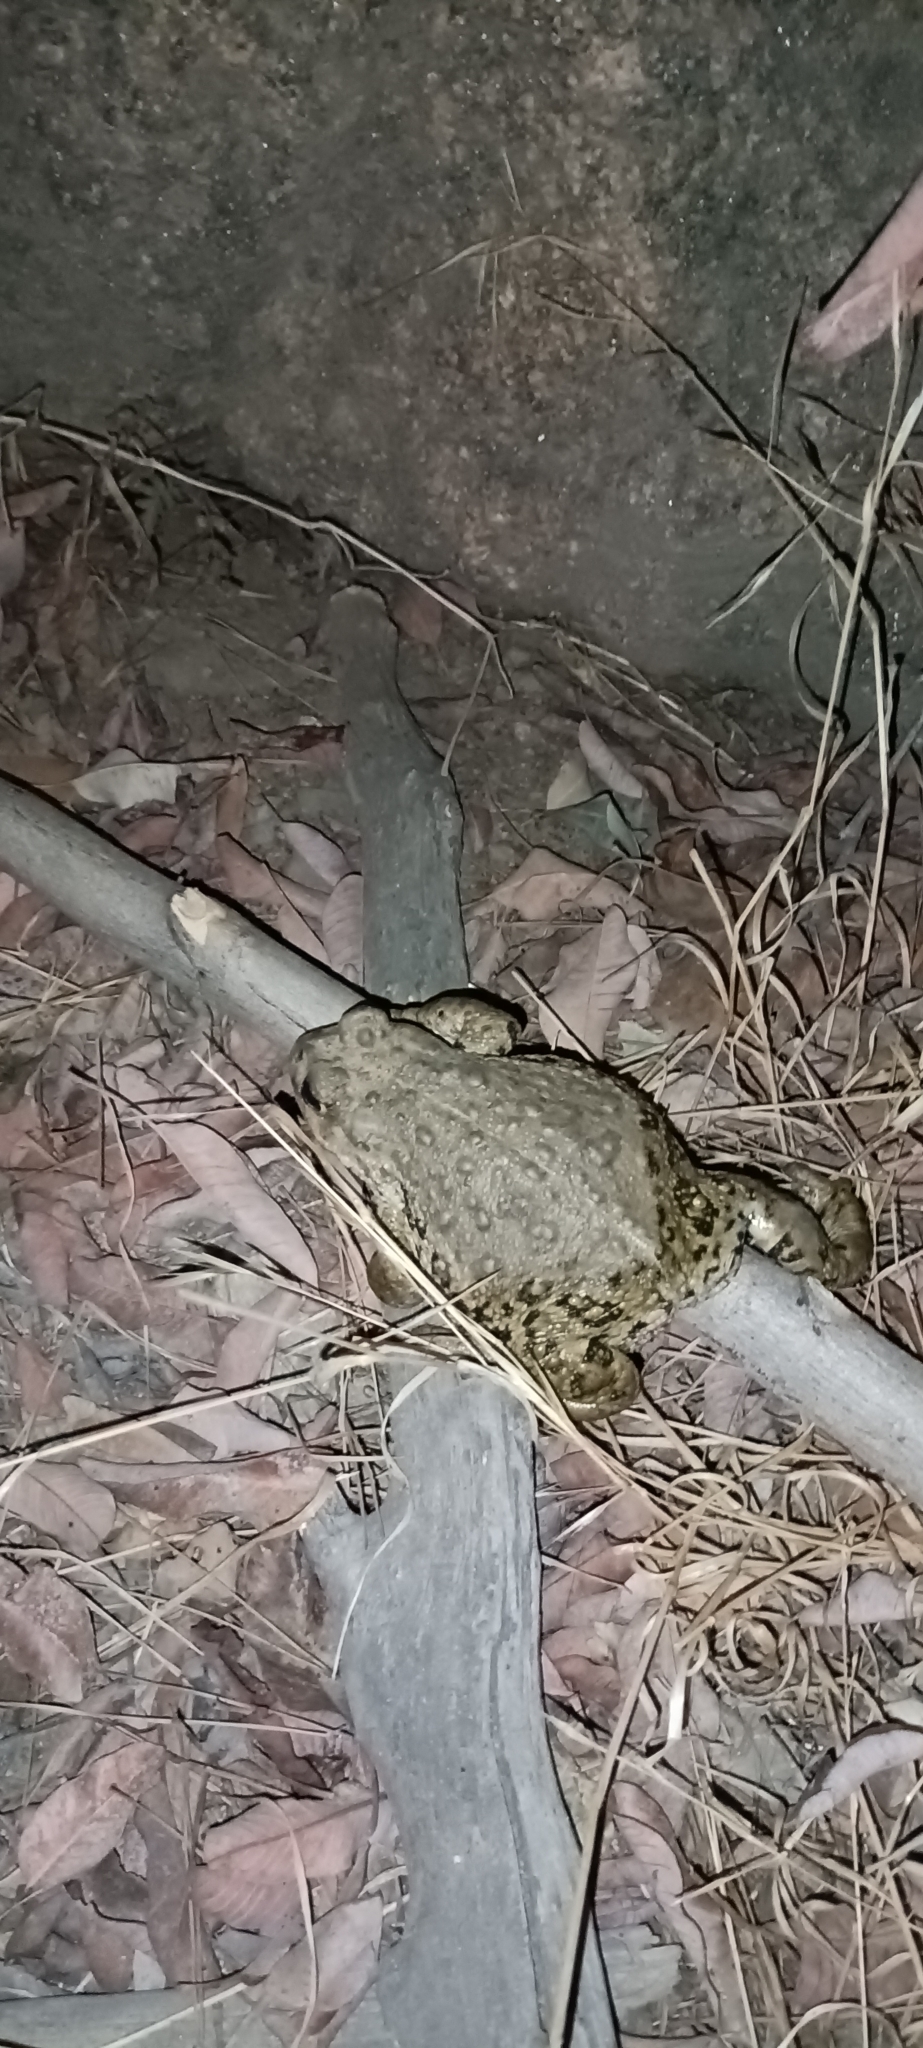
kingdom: Animalia
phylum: Chordata
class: Amphibia
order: Anura
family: Bufonidae
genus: Anaxyrus
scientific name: Anaxyrus boreas
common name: Western toad
